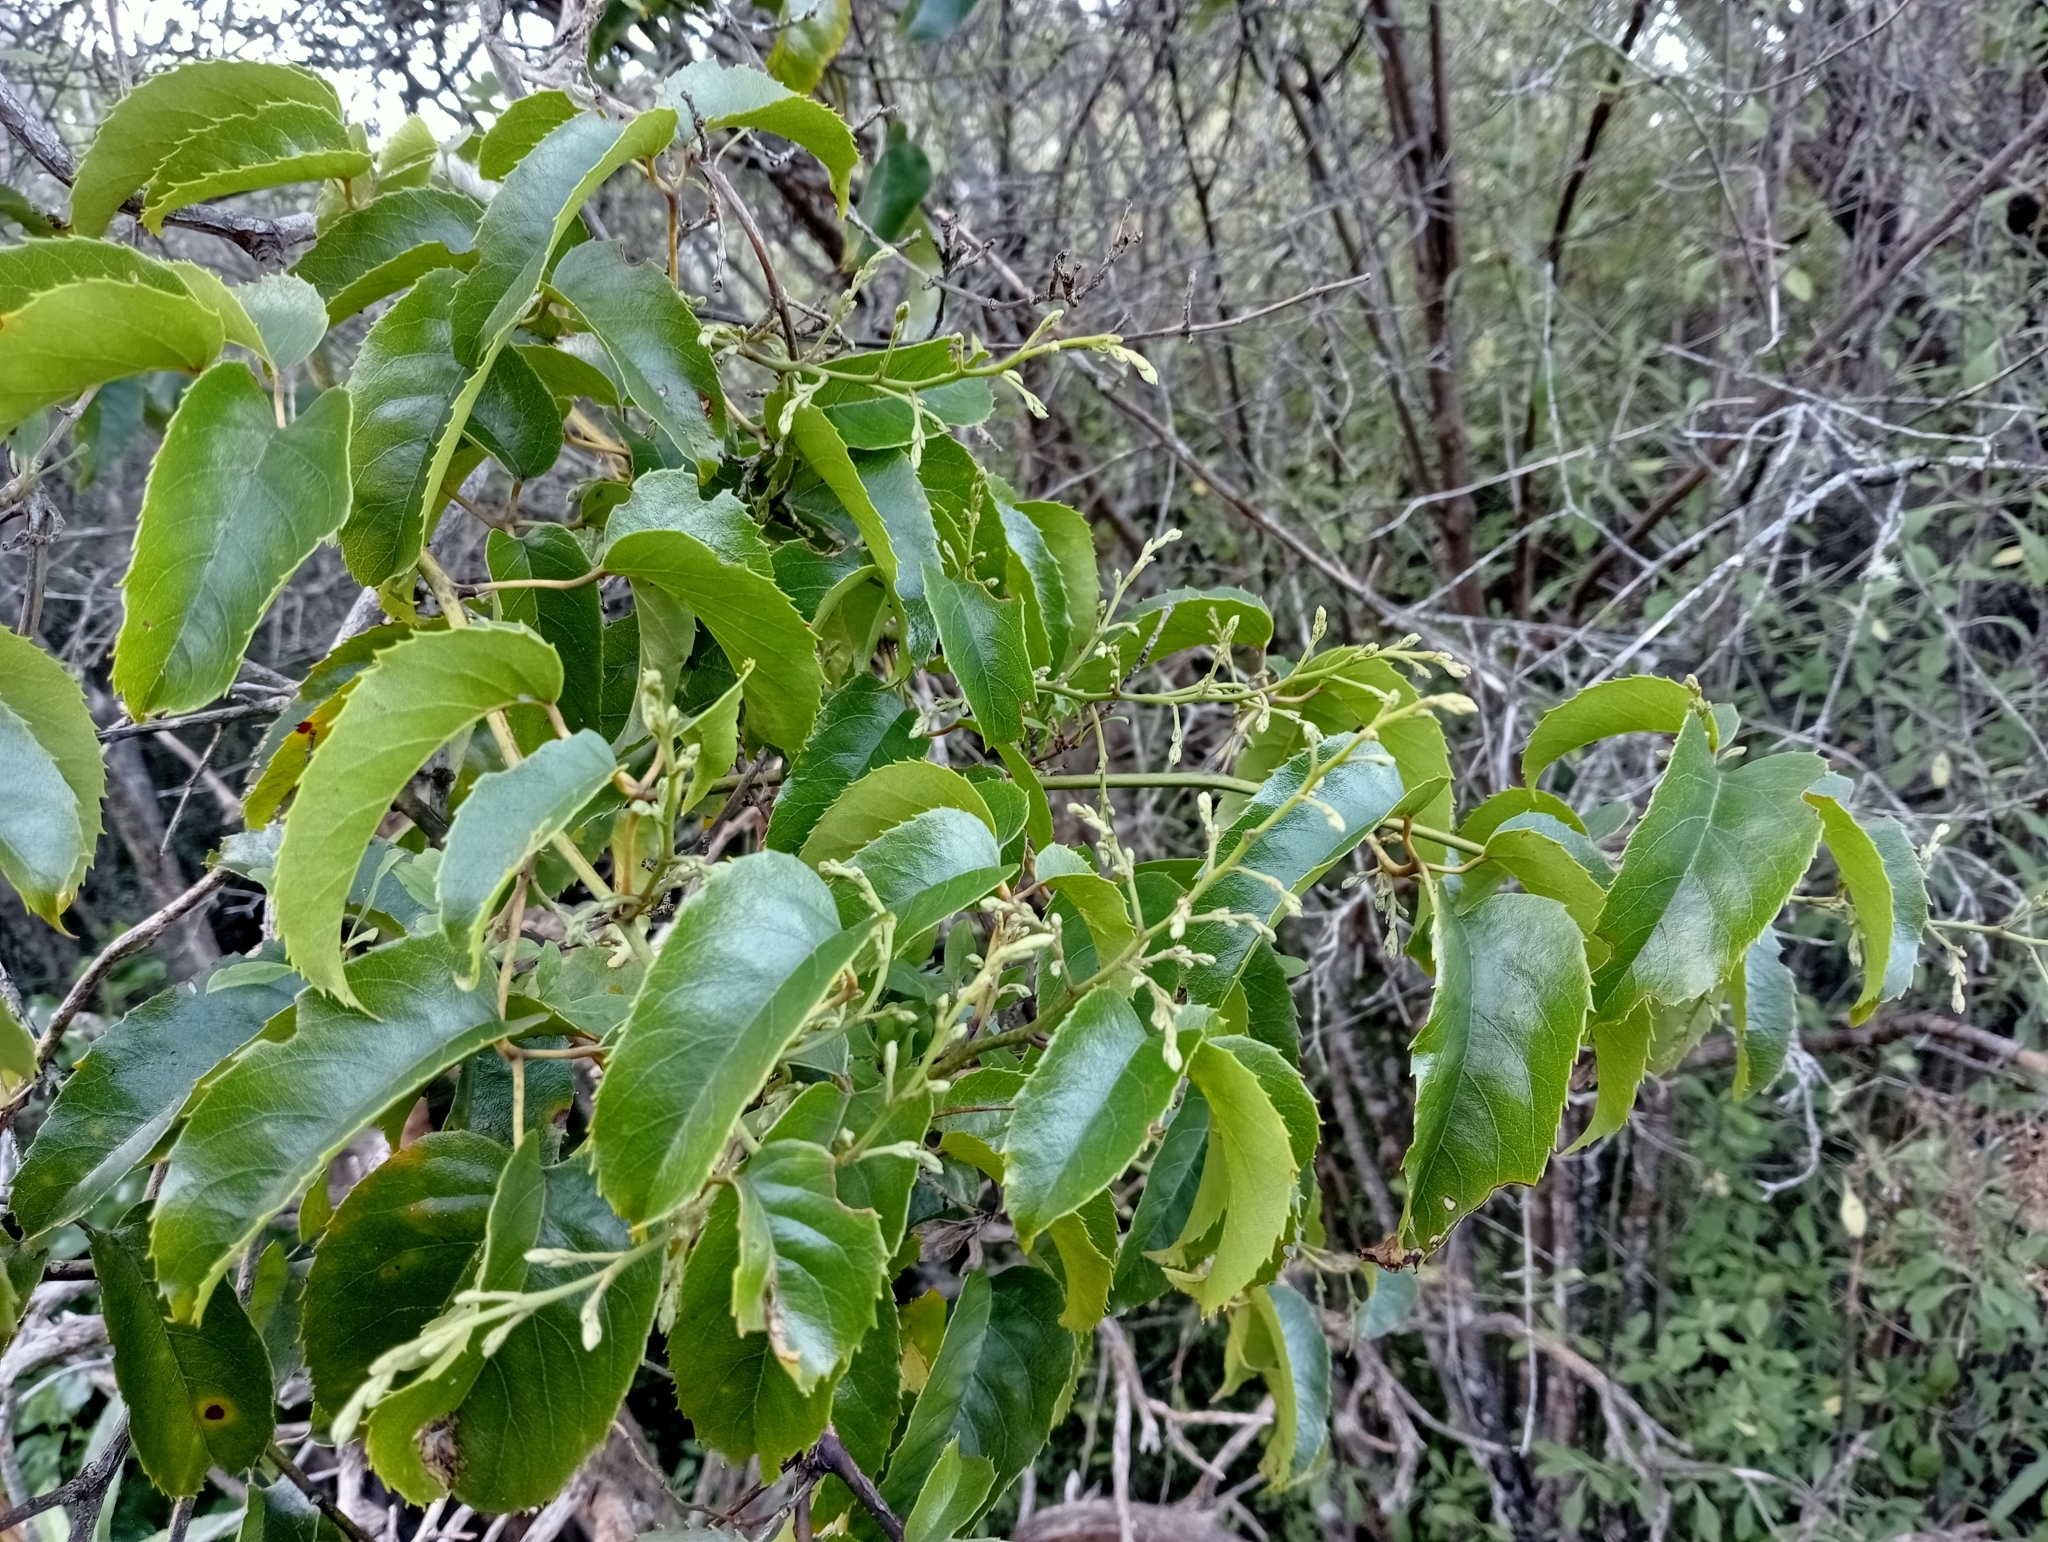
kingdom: Plantae
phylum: Tracheophyta
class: Magnoliopsida
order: Rosales
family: Rosaceae
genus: Rubus
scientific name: Rubus cissoides
